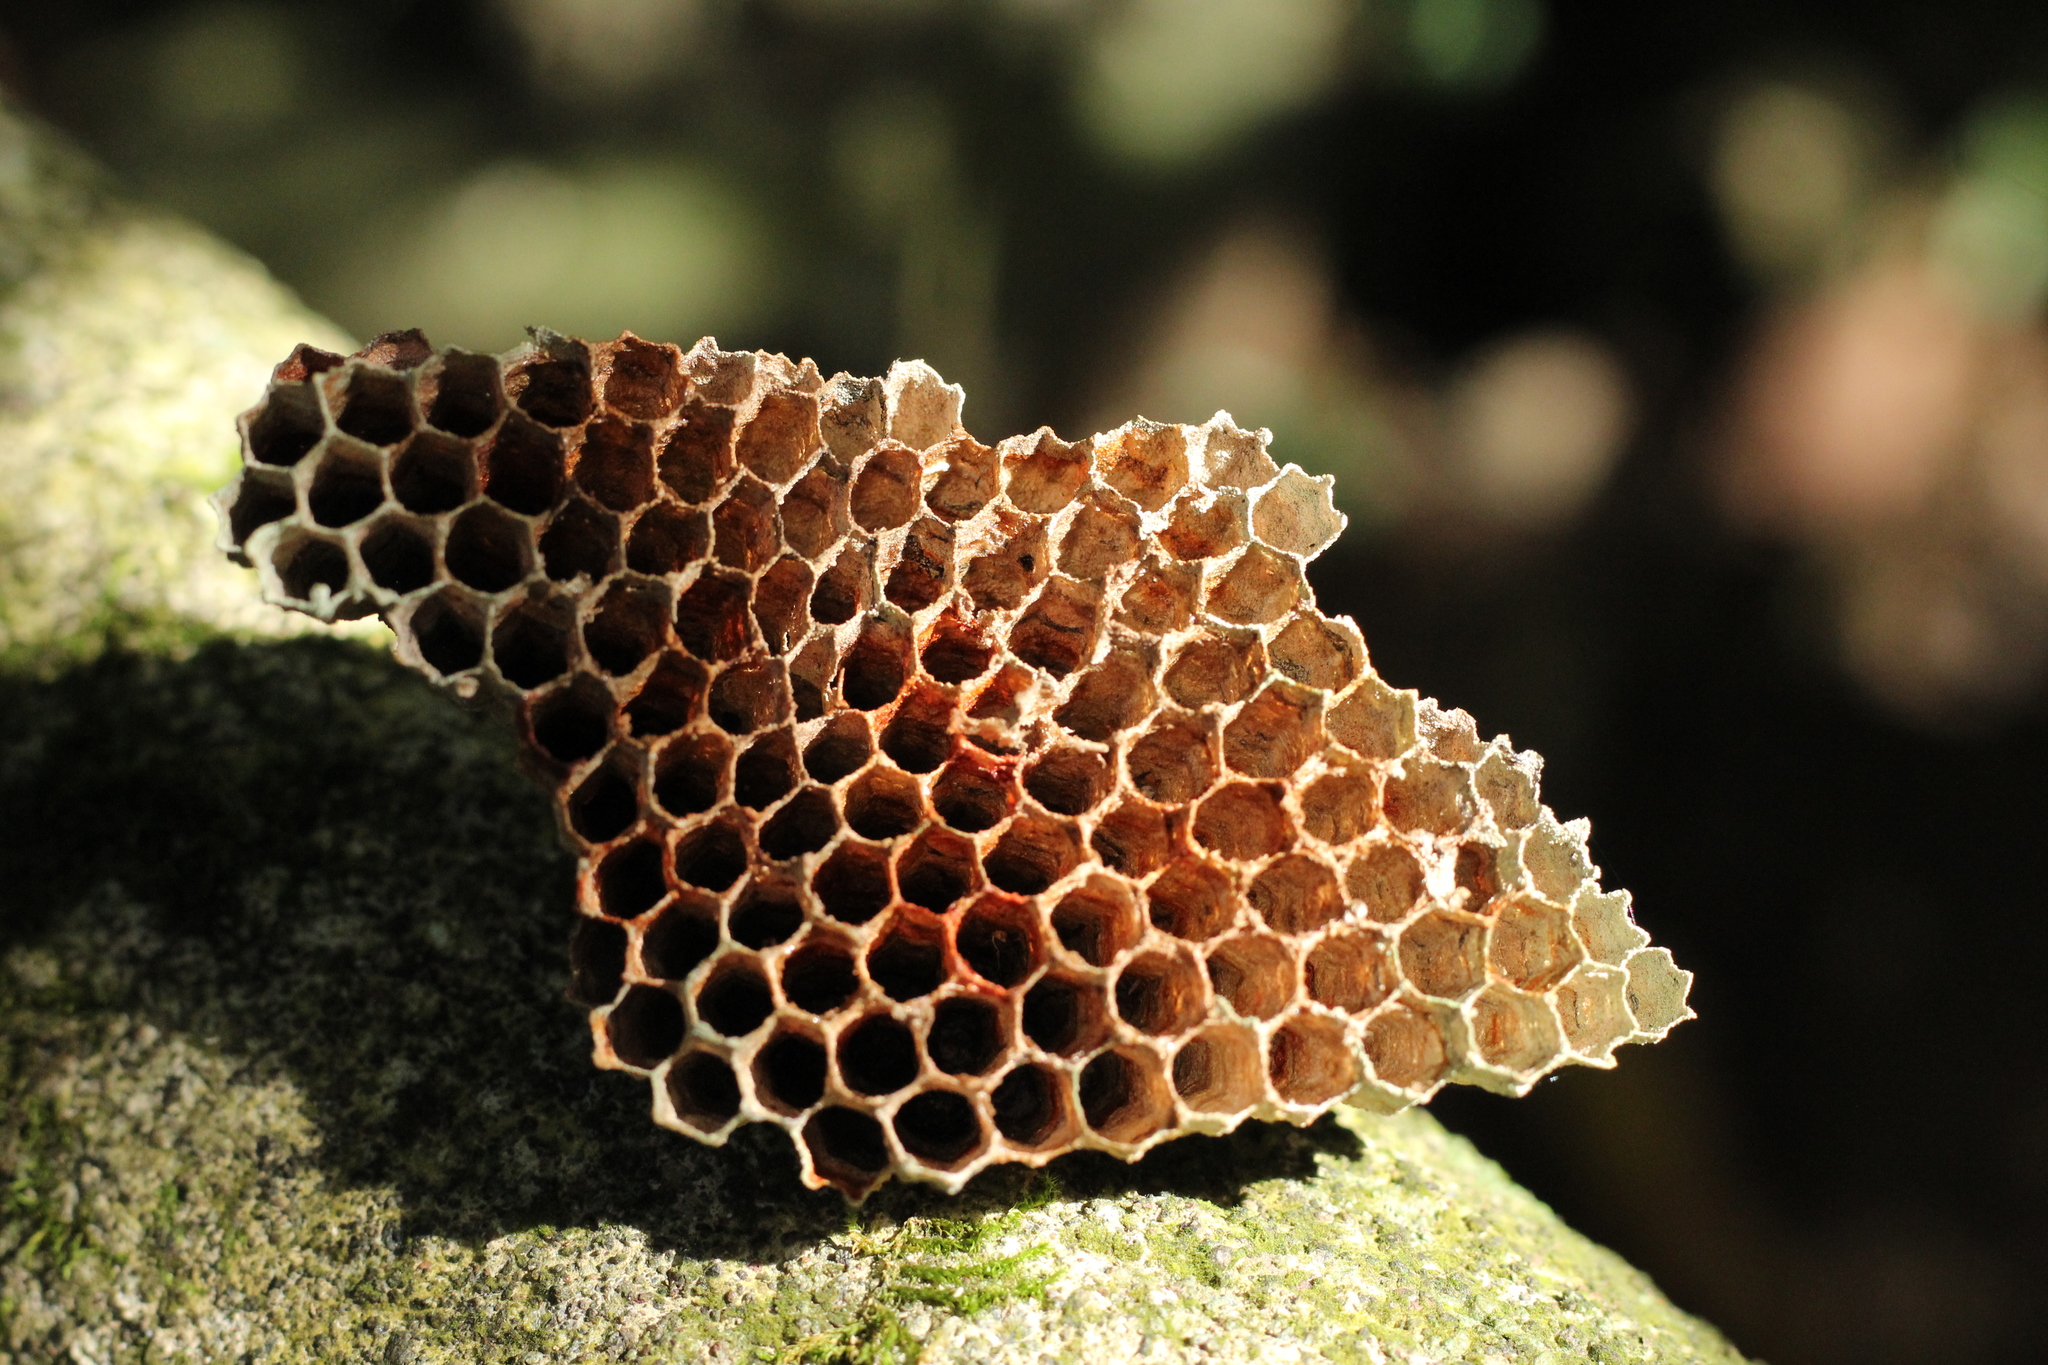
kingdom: Animalia
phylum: Arthropoda
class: Insecta
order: Hymenoptera
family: Apidae
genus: Apis
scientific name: Apis mellifera
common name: Honey bee
